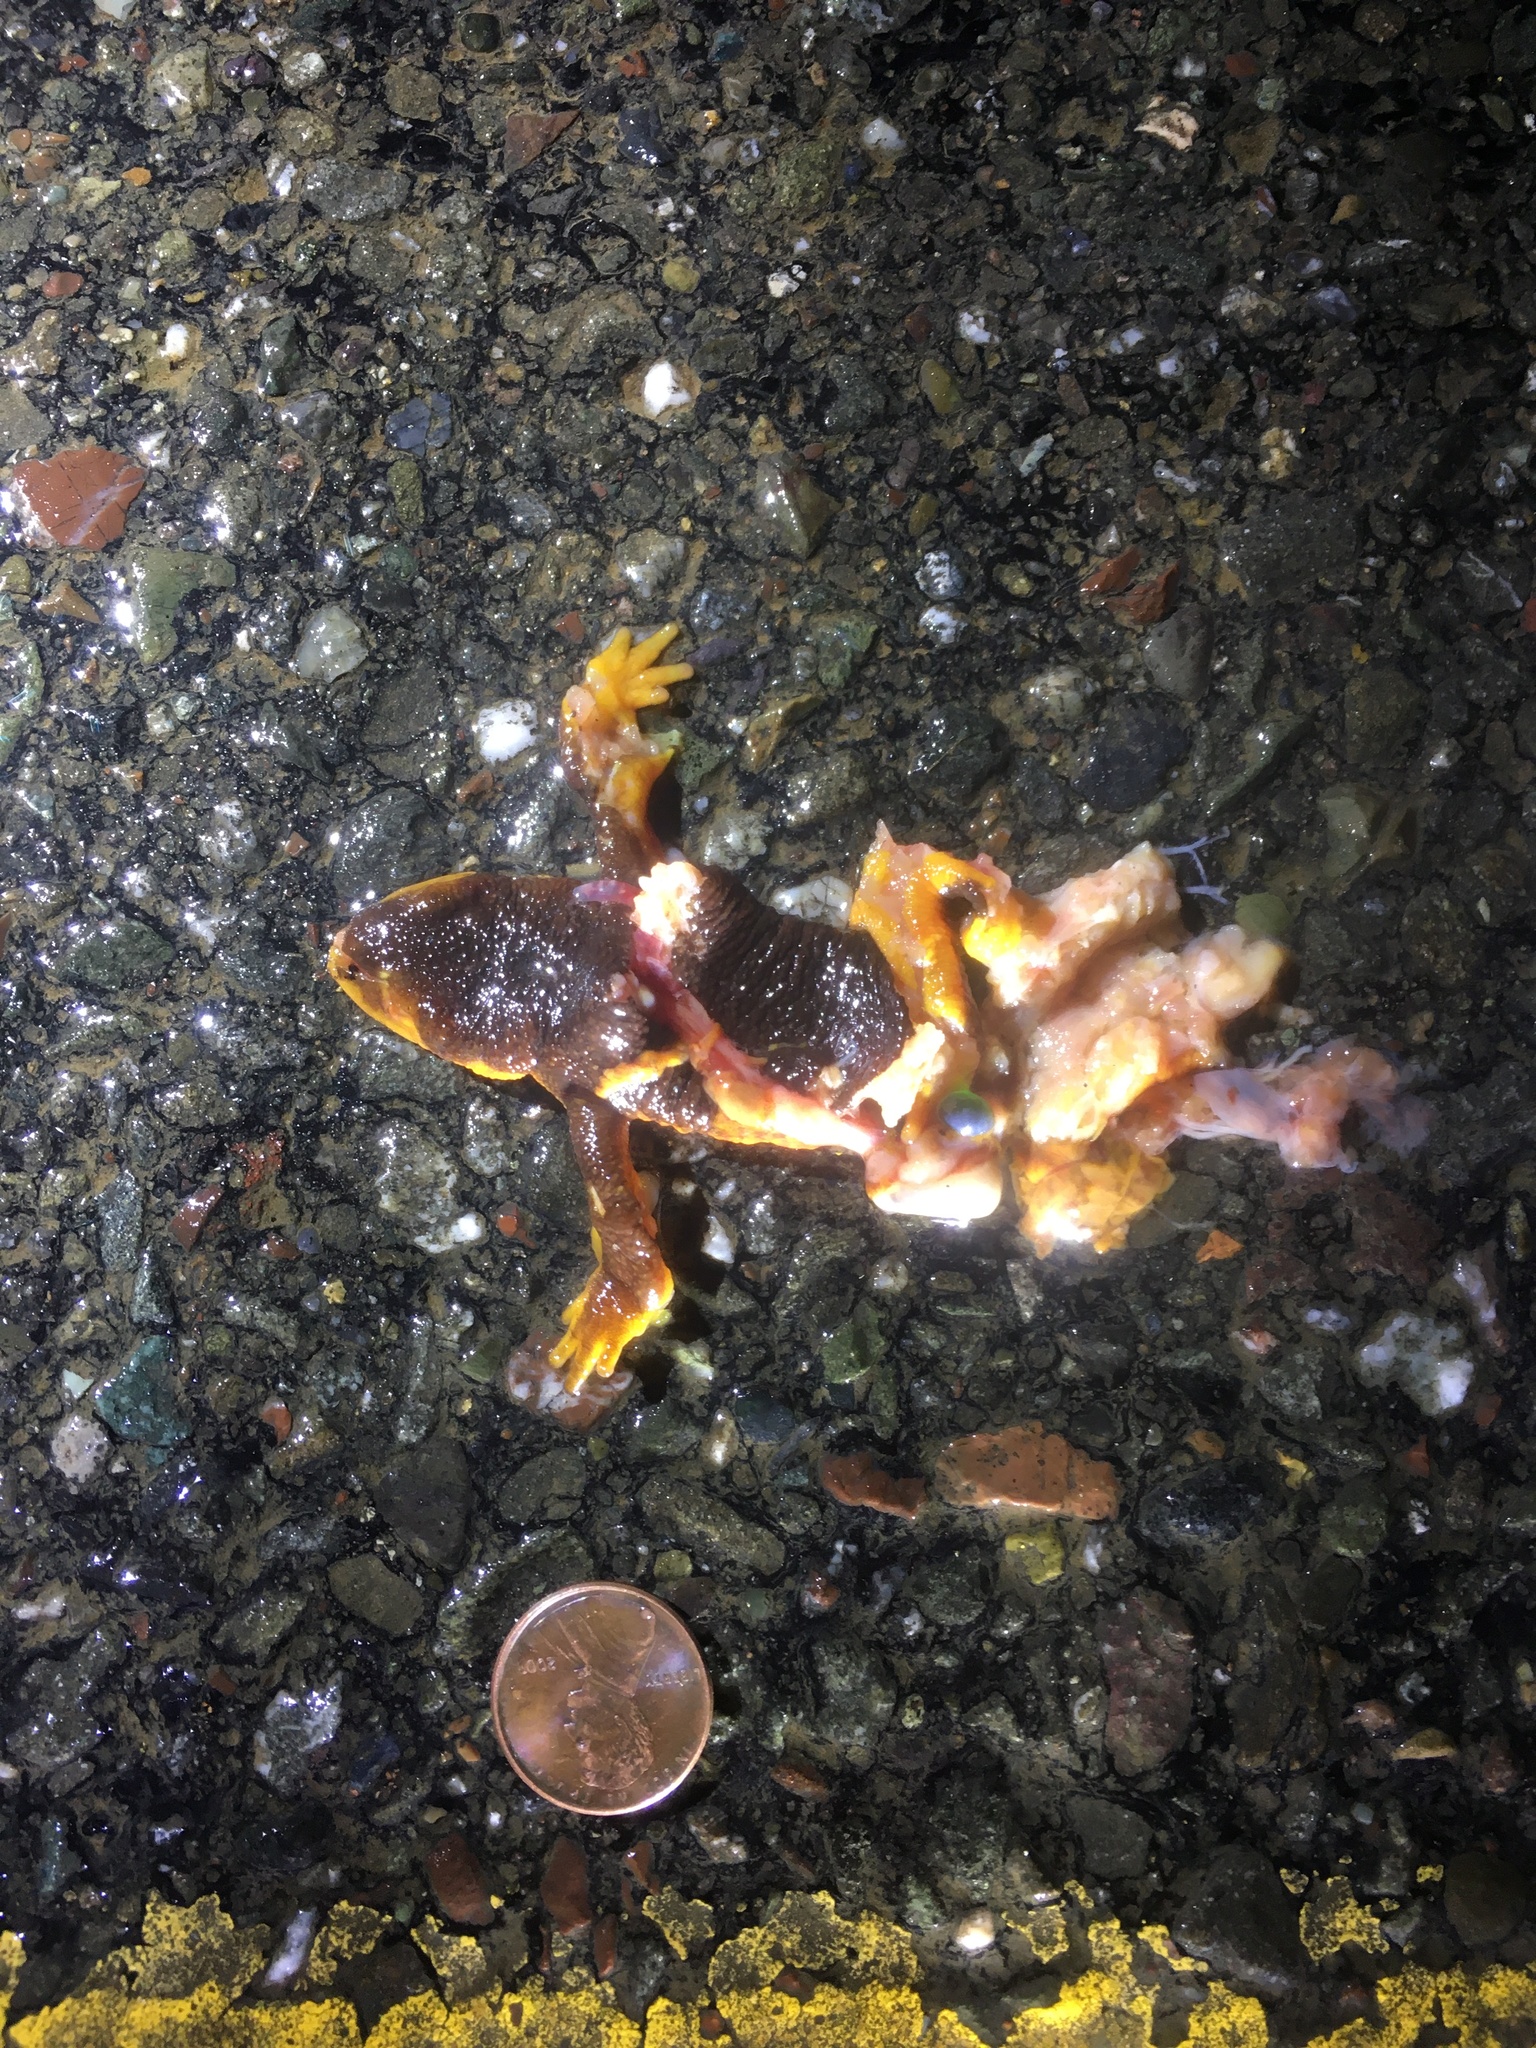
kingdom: Animalia
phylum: Chordata
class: Amphibia
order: Caudata
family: Salamandridae
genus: Taricha
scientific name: Taricha
